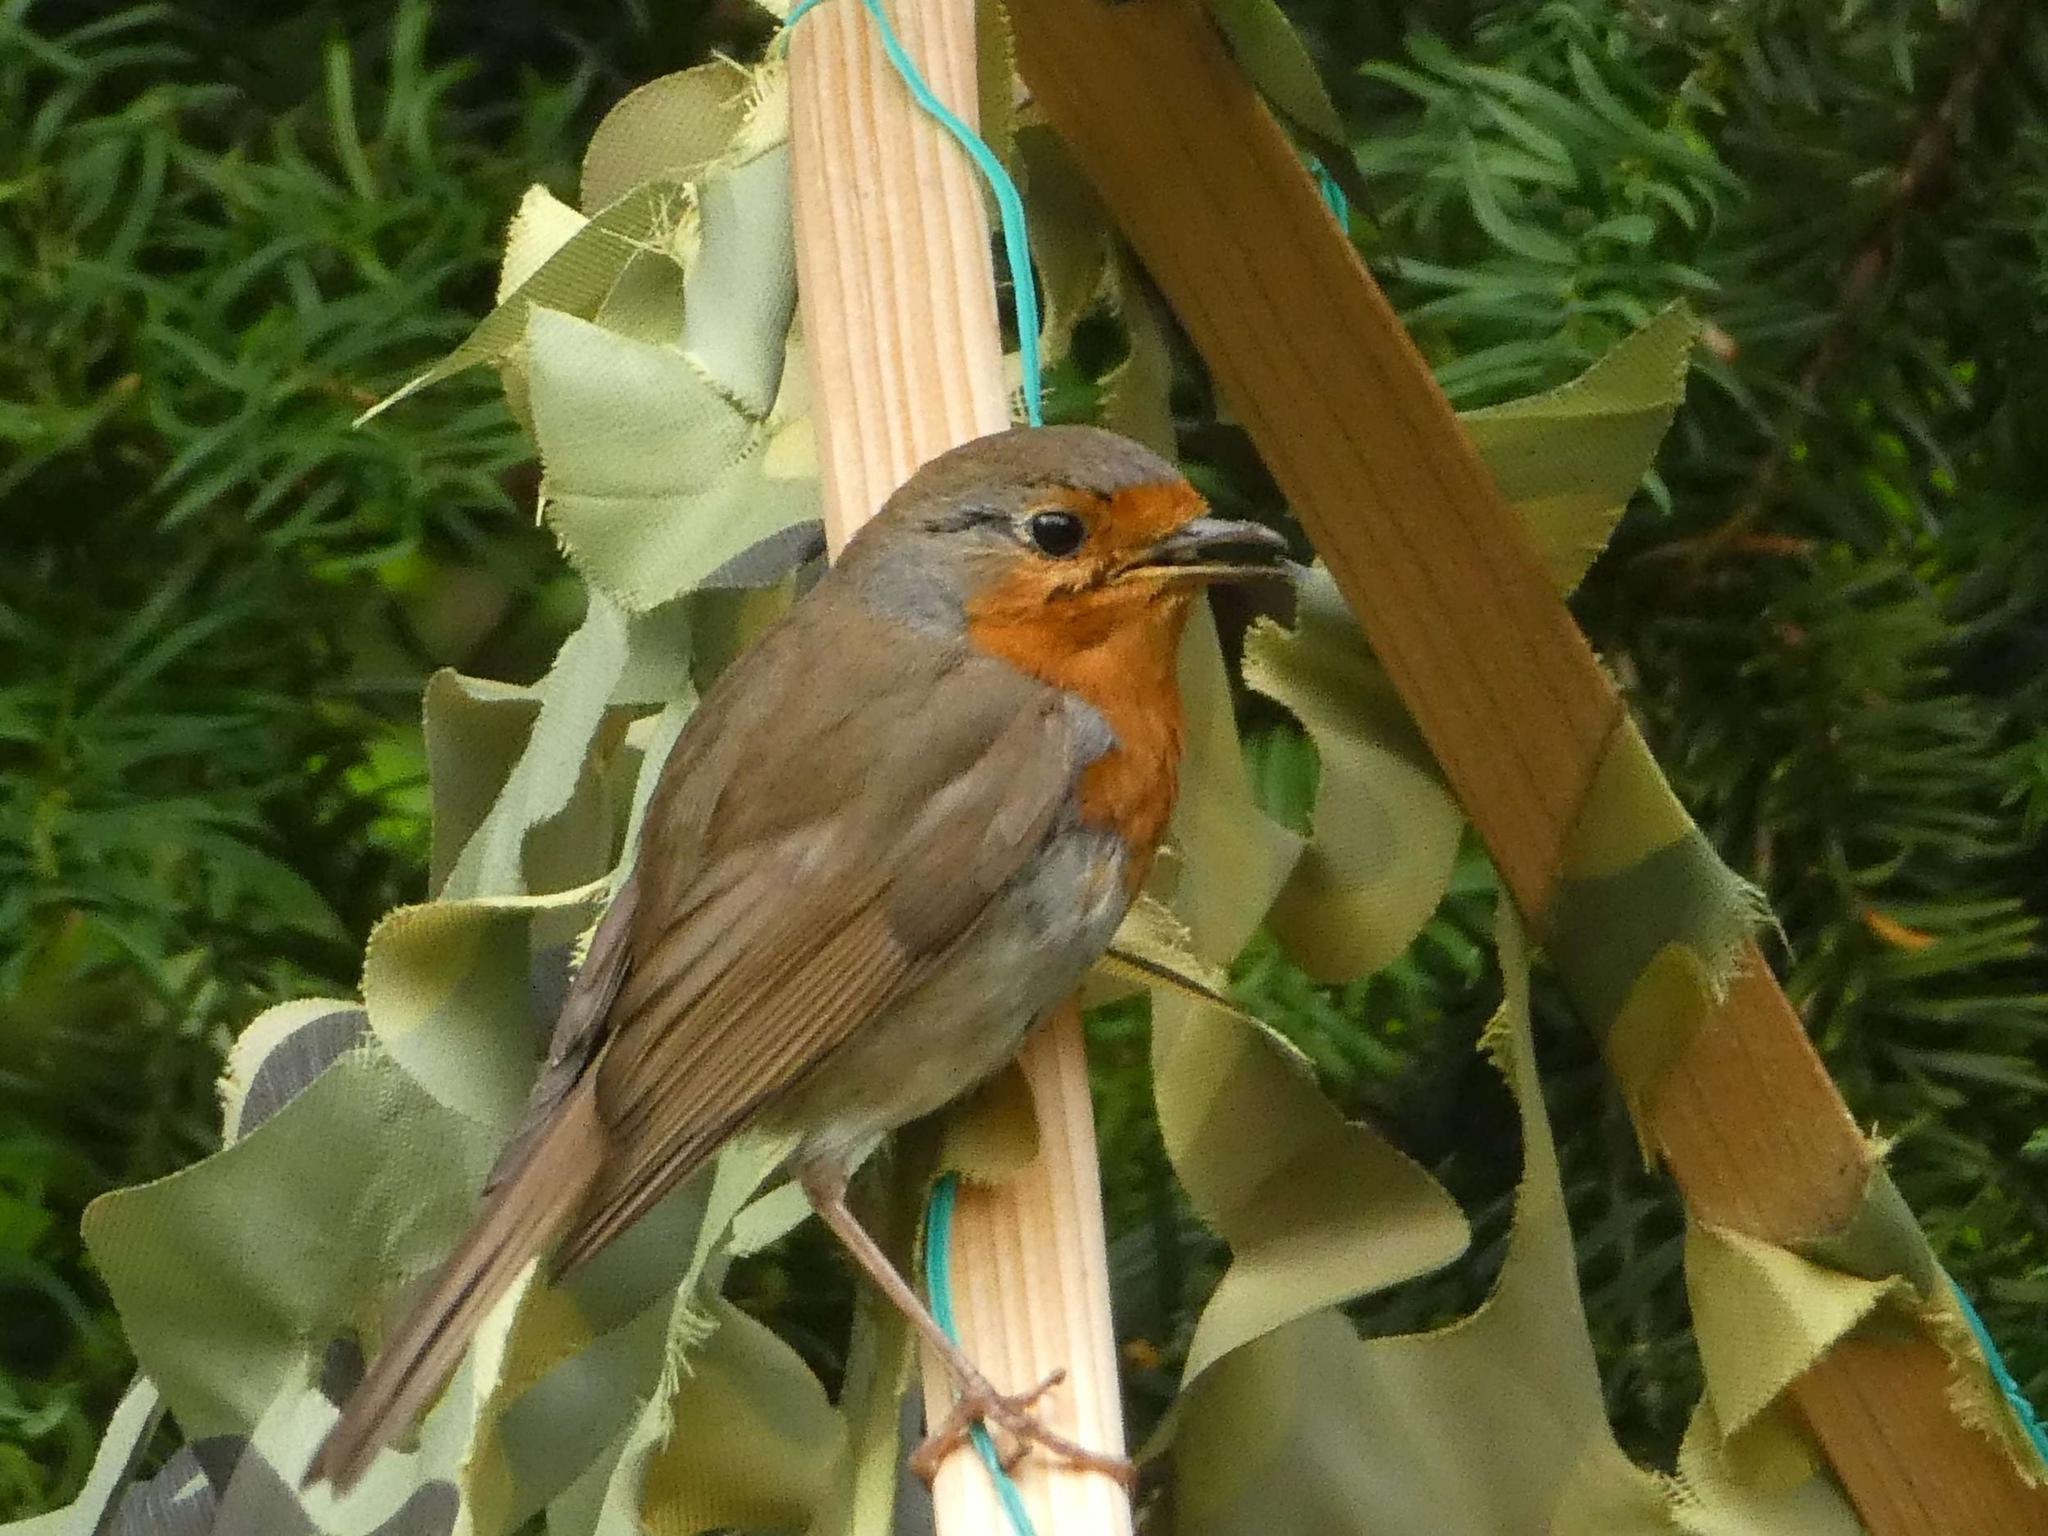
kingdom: Animalia
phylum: Chordata
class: Aves
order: Passeriformes
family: Muscicapidae
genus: Erithacus
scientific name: Erithacus rubecula
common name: European robin
